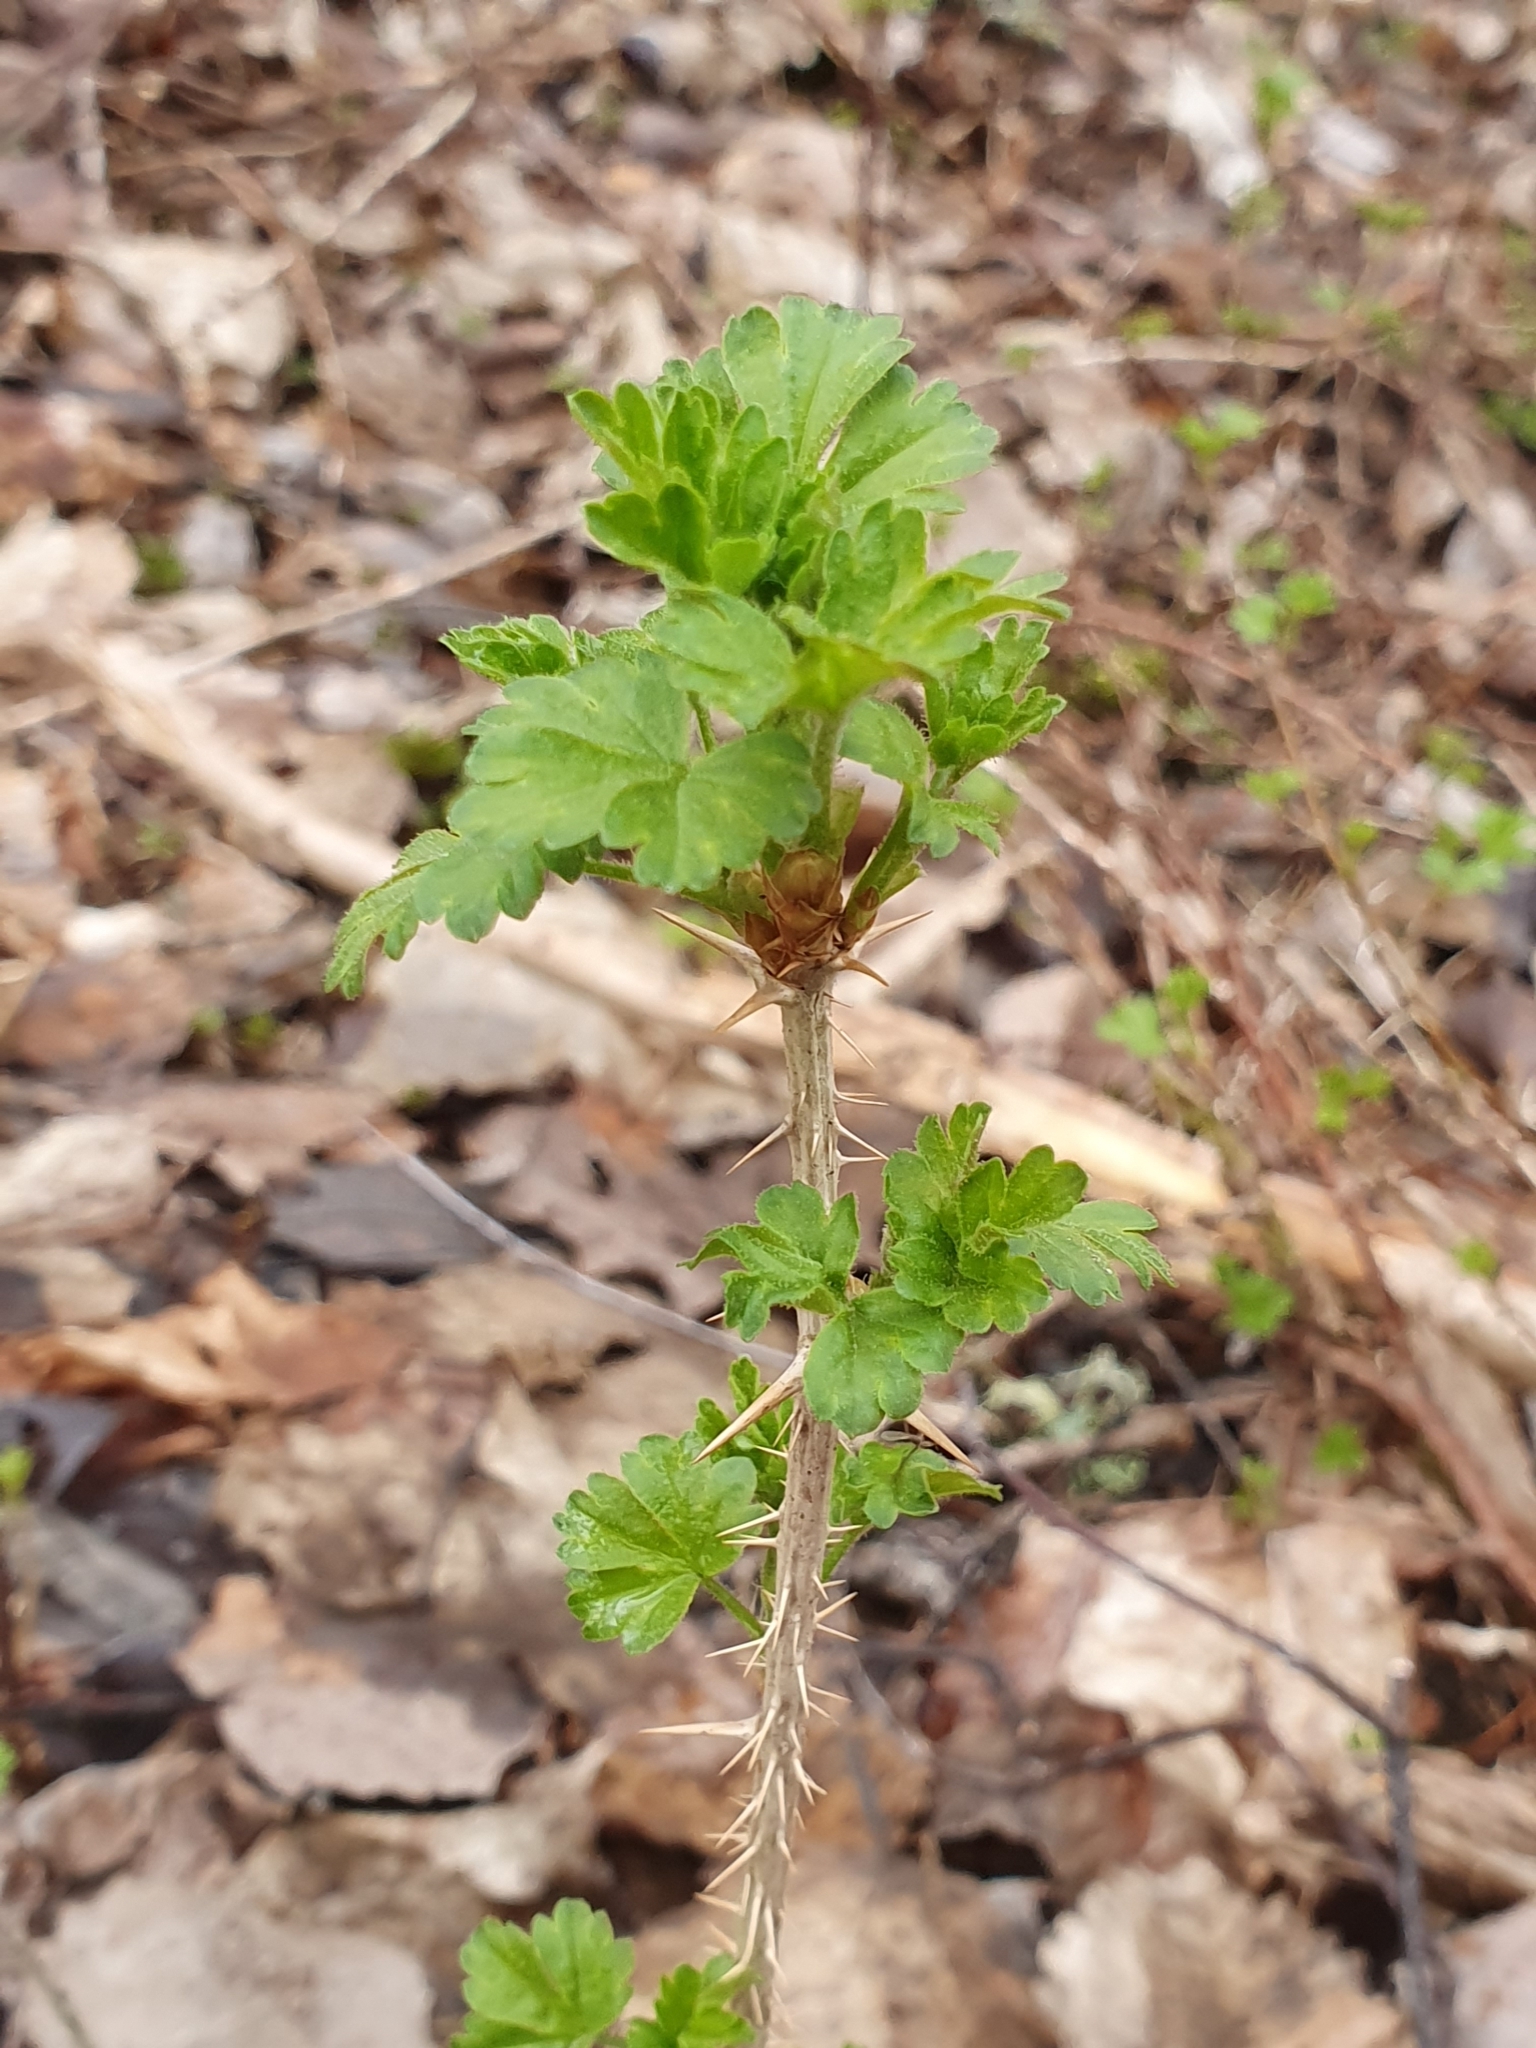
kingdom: Plantae
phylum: Tracheophyta
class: Magnoliopsida
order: Saxifragales
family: Grossulariaceae
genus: Ribes
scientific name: Ribes uva-crispa
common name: Gooseberry
